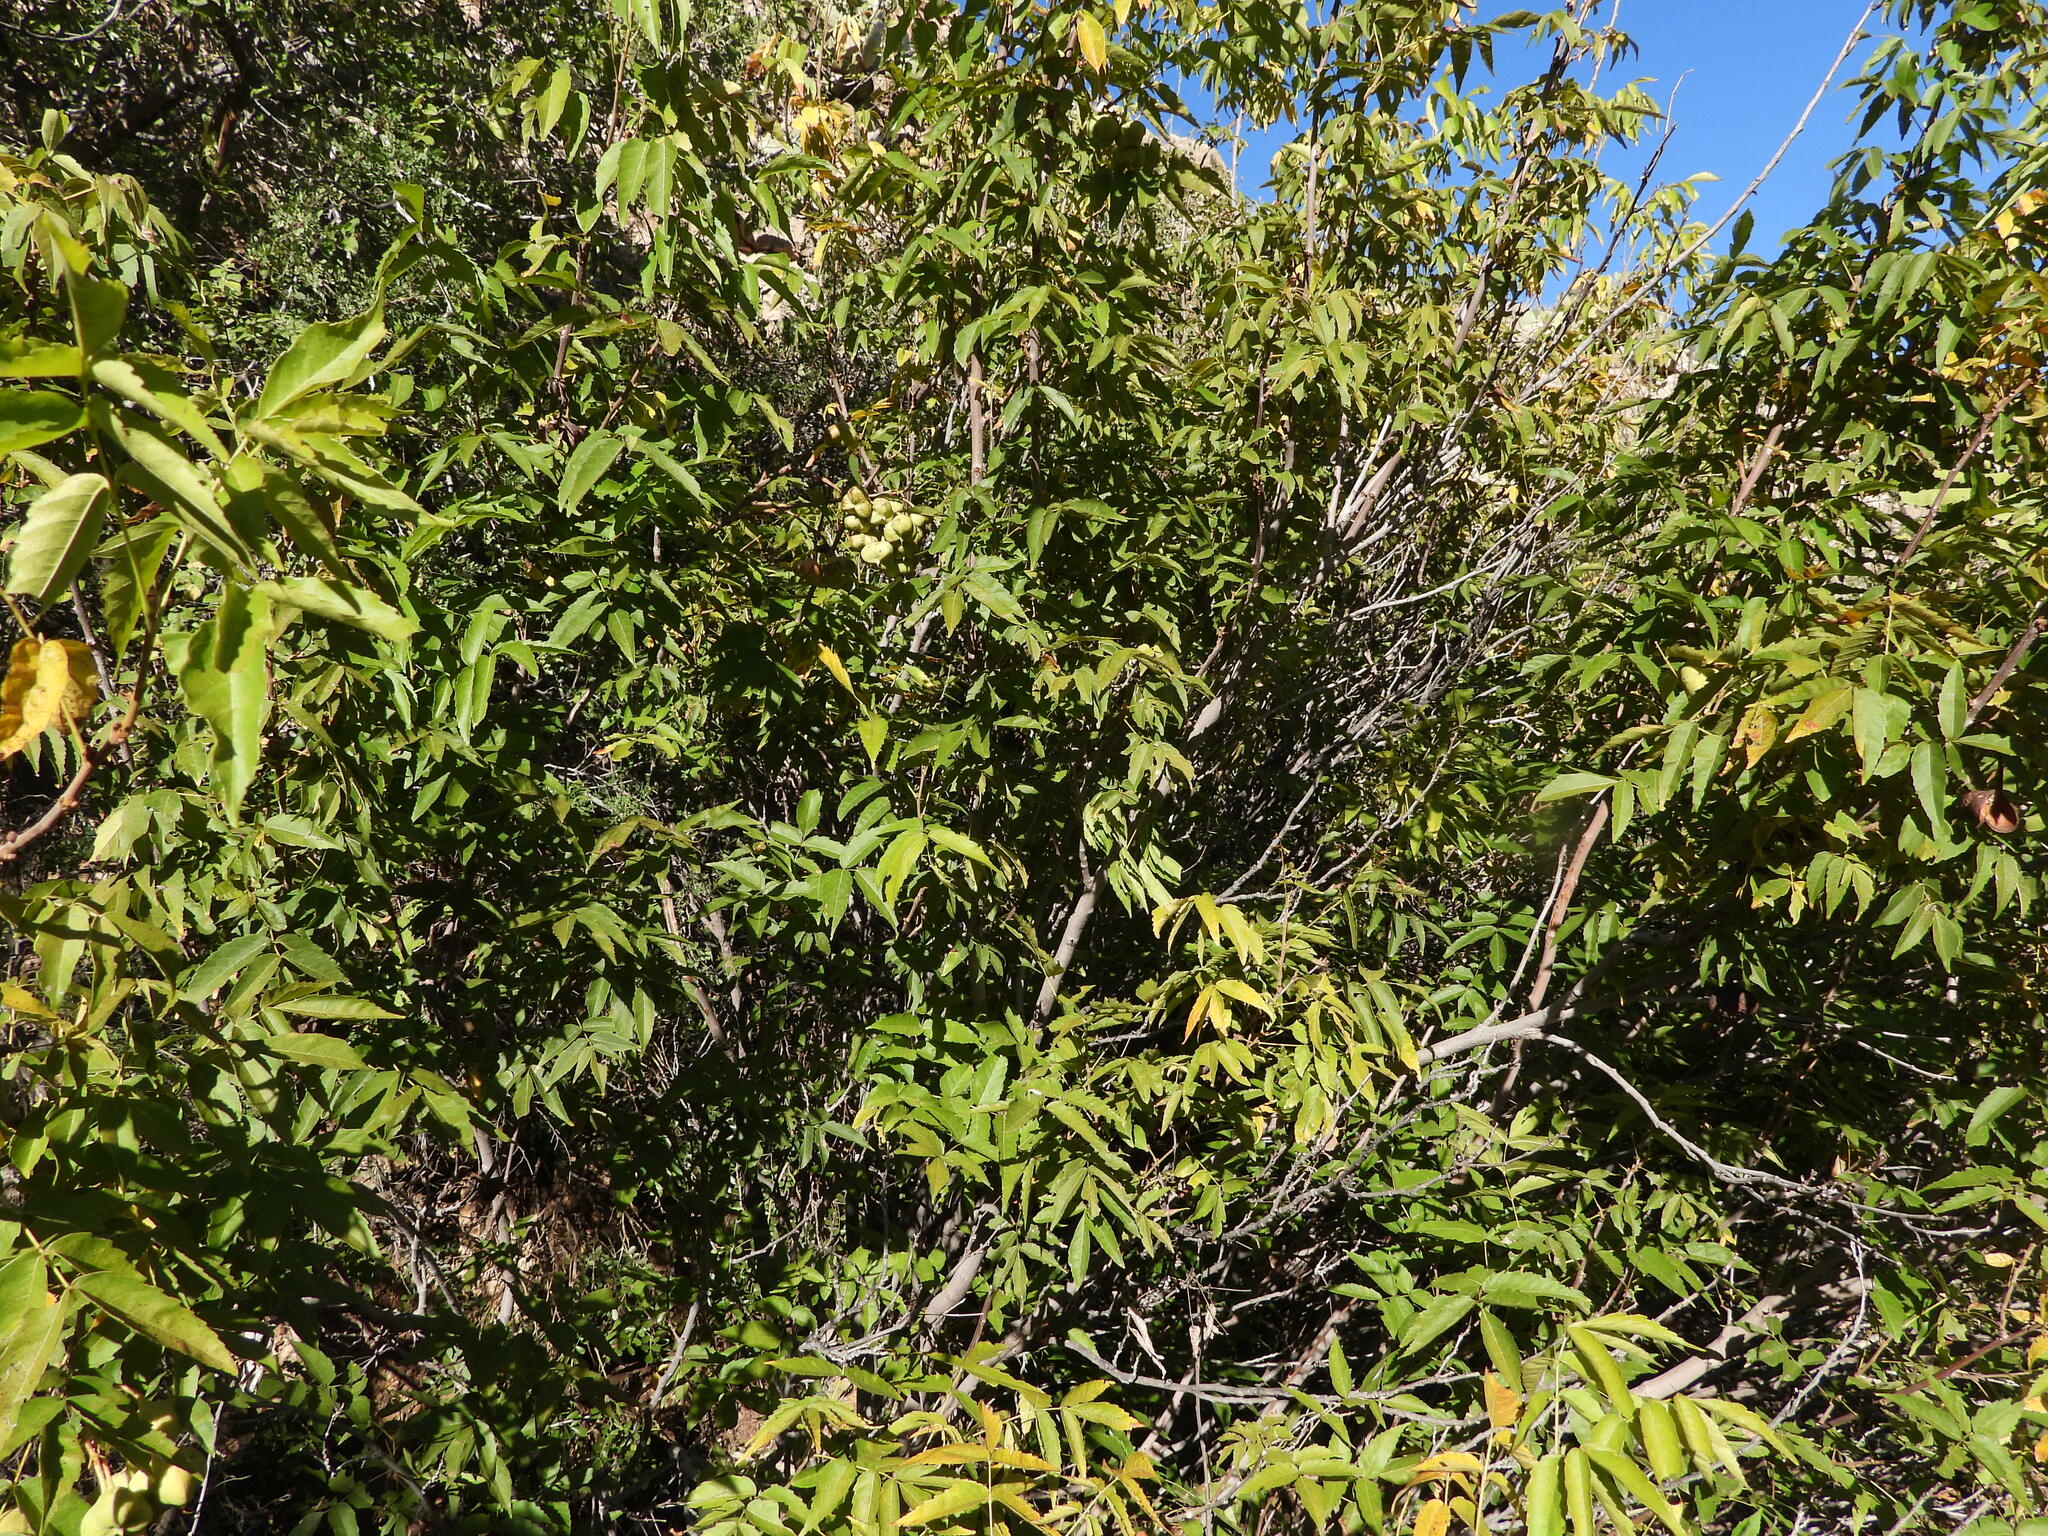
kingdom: Plantae
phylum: Tracheophyta
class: Magnoliopsida
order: Sapindales
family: Sapindaceae
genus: Ungnadia
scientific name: Ungnadia speciosa
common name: Texas-buckeye
